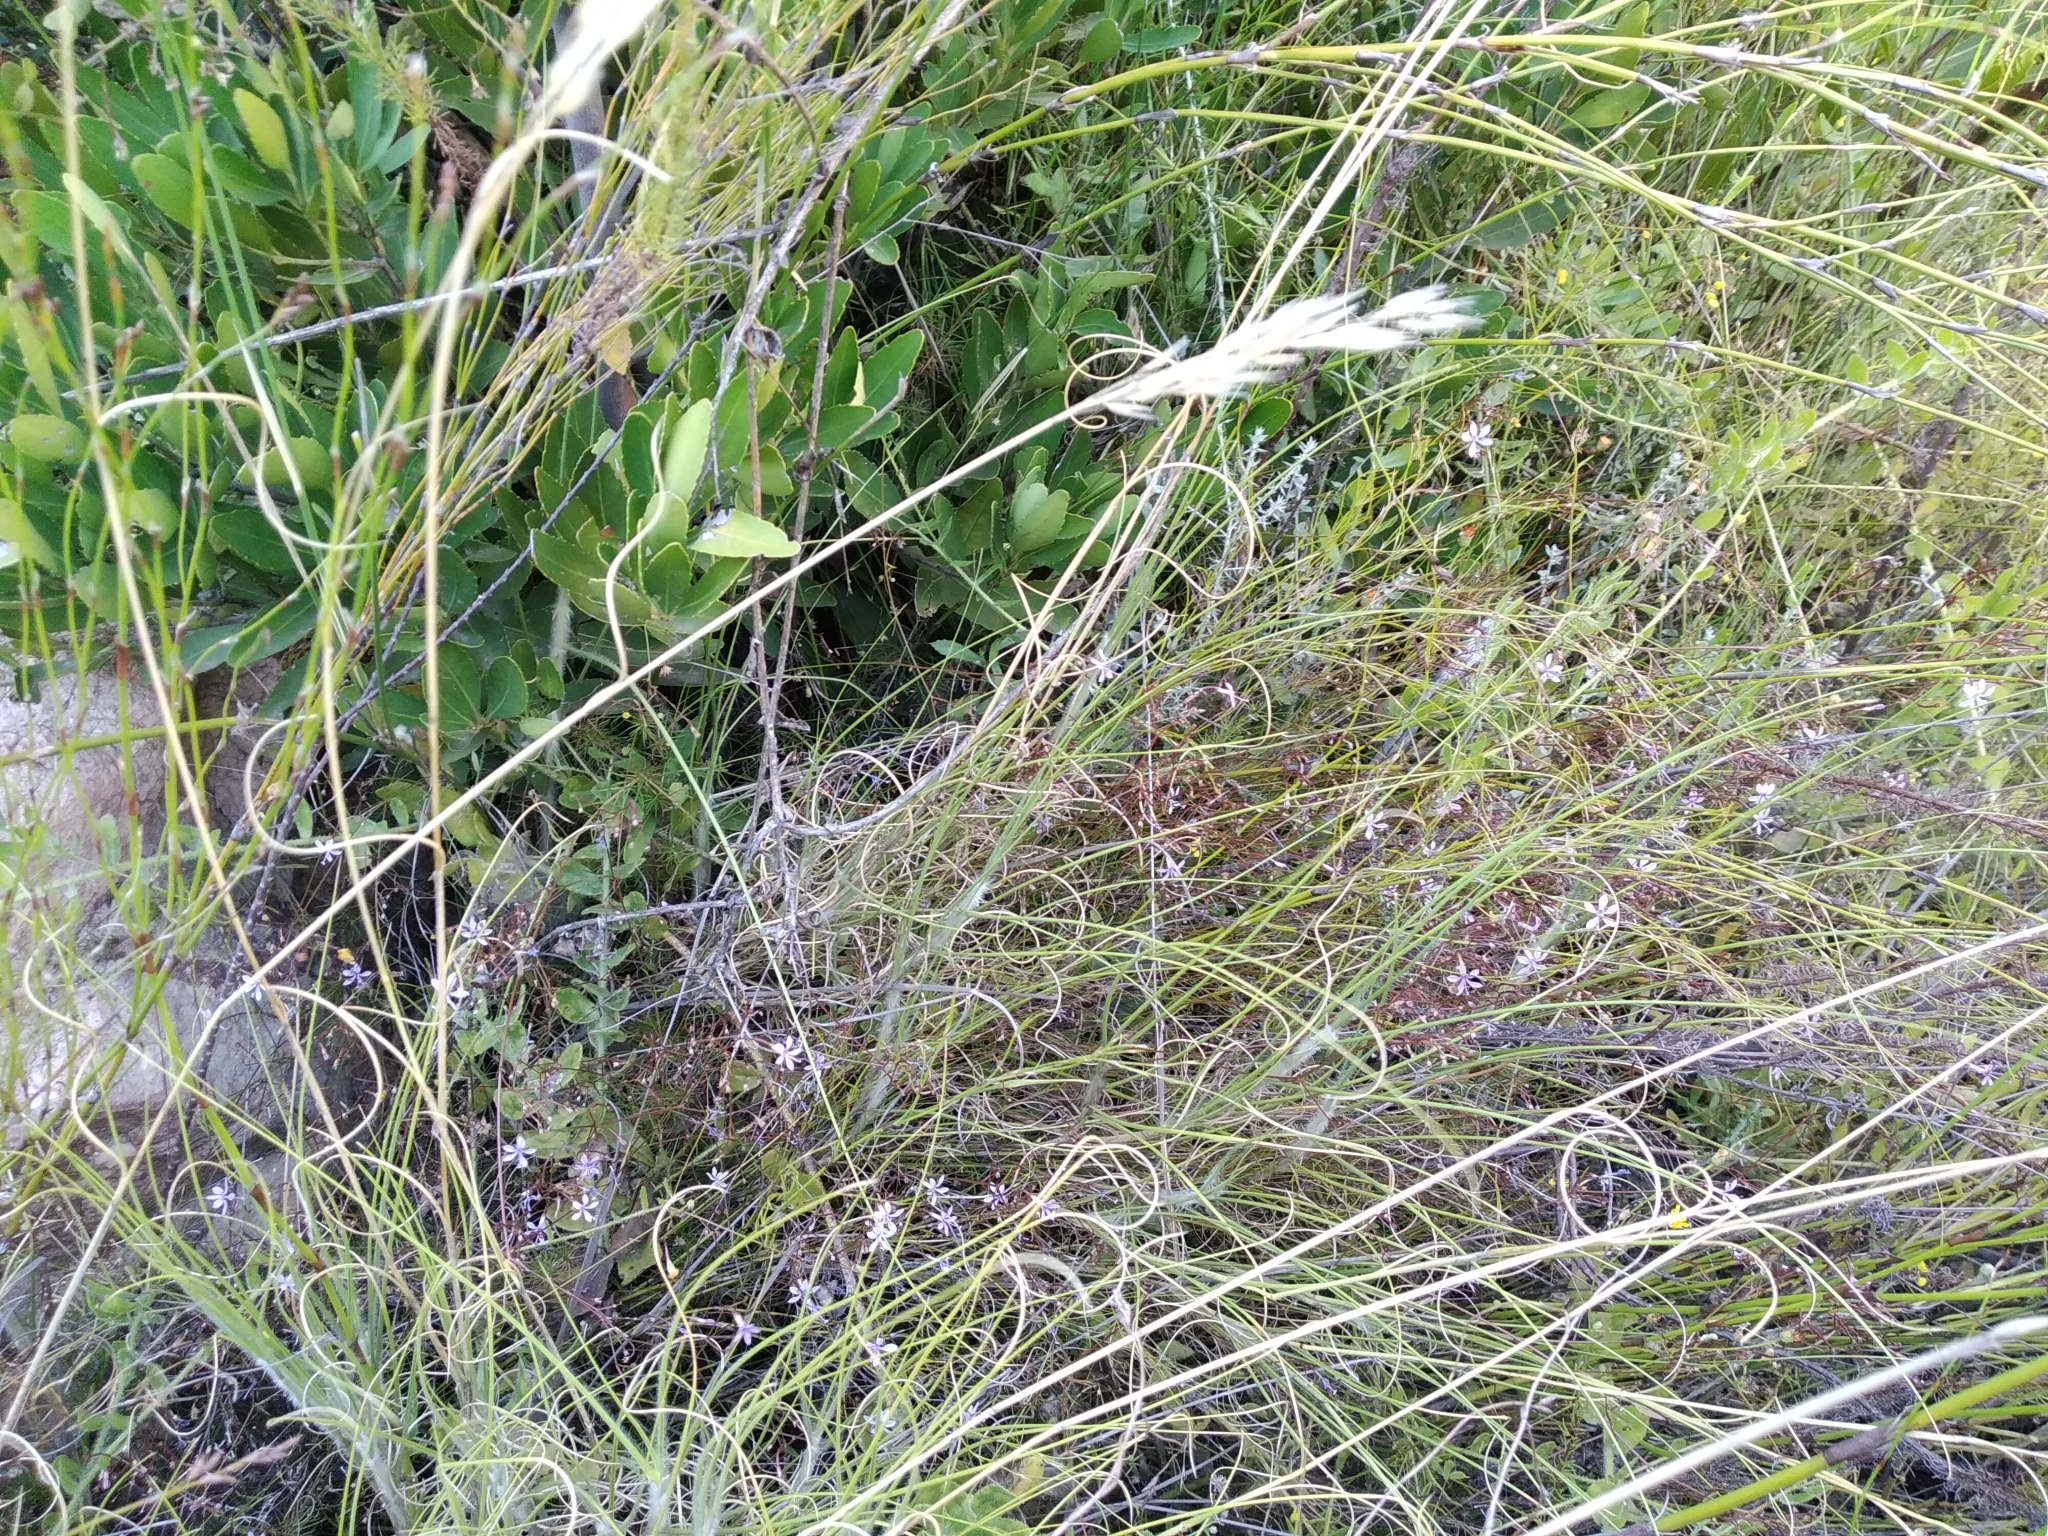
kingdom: Plantae
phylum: Tracheophyta
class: Magnoliopsida
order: Asterales
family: Campanulaceae
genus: Prismatocarpus
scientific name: Prismatocarpus diffusus
